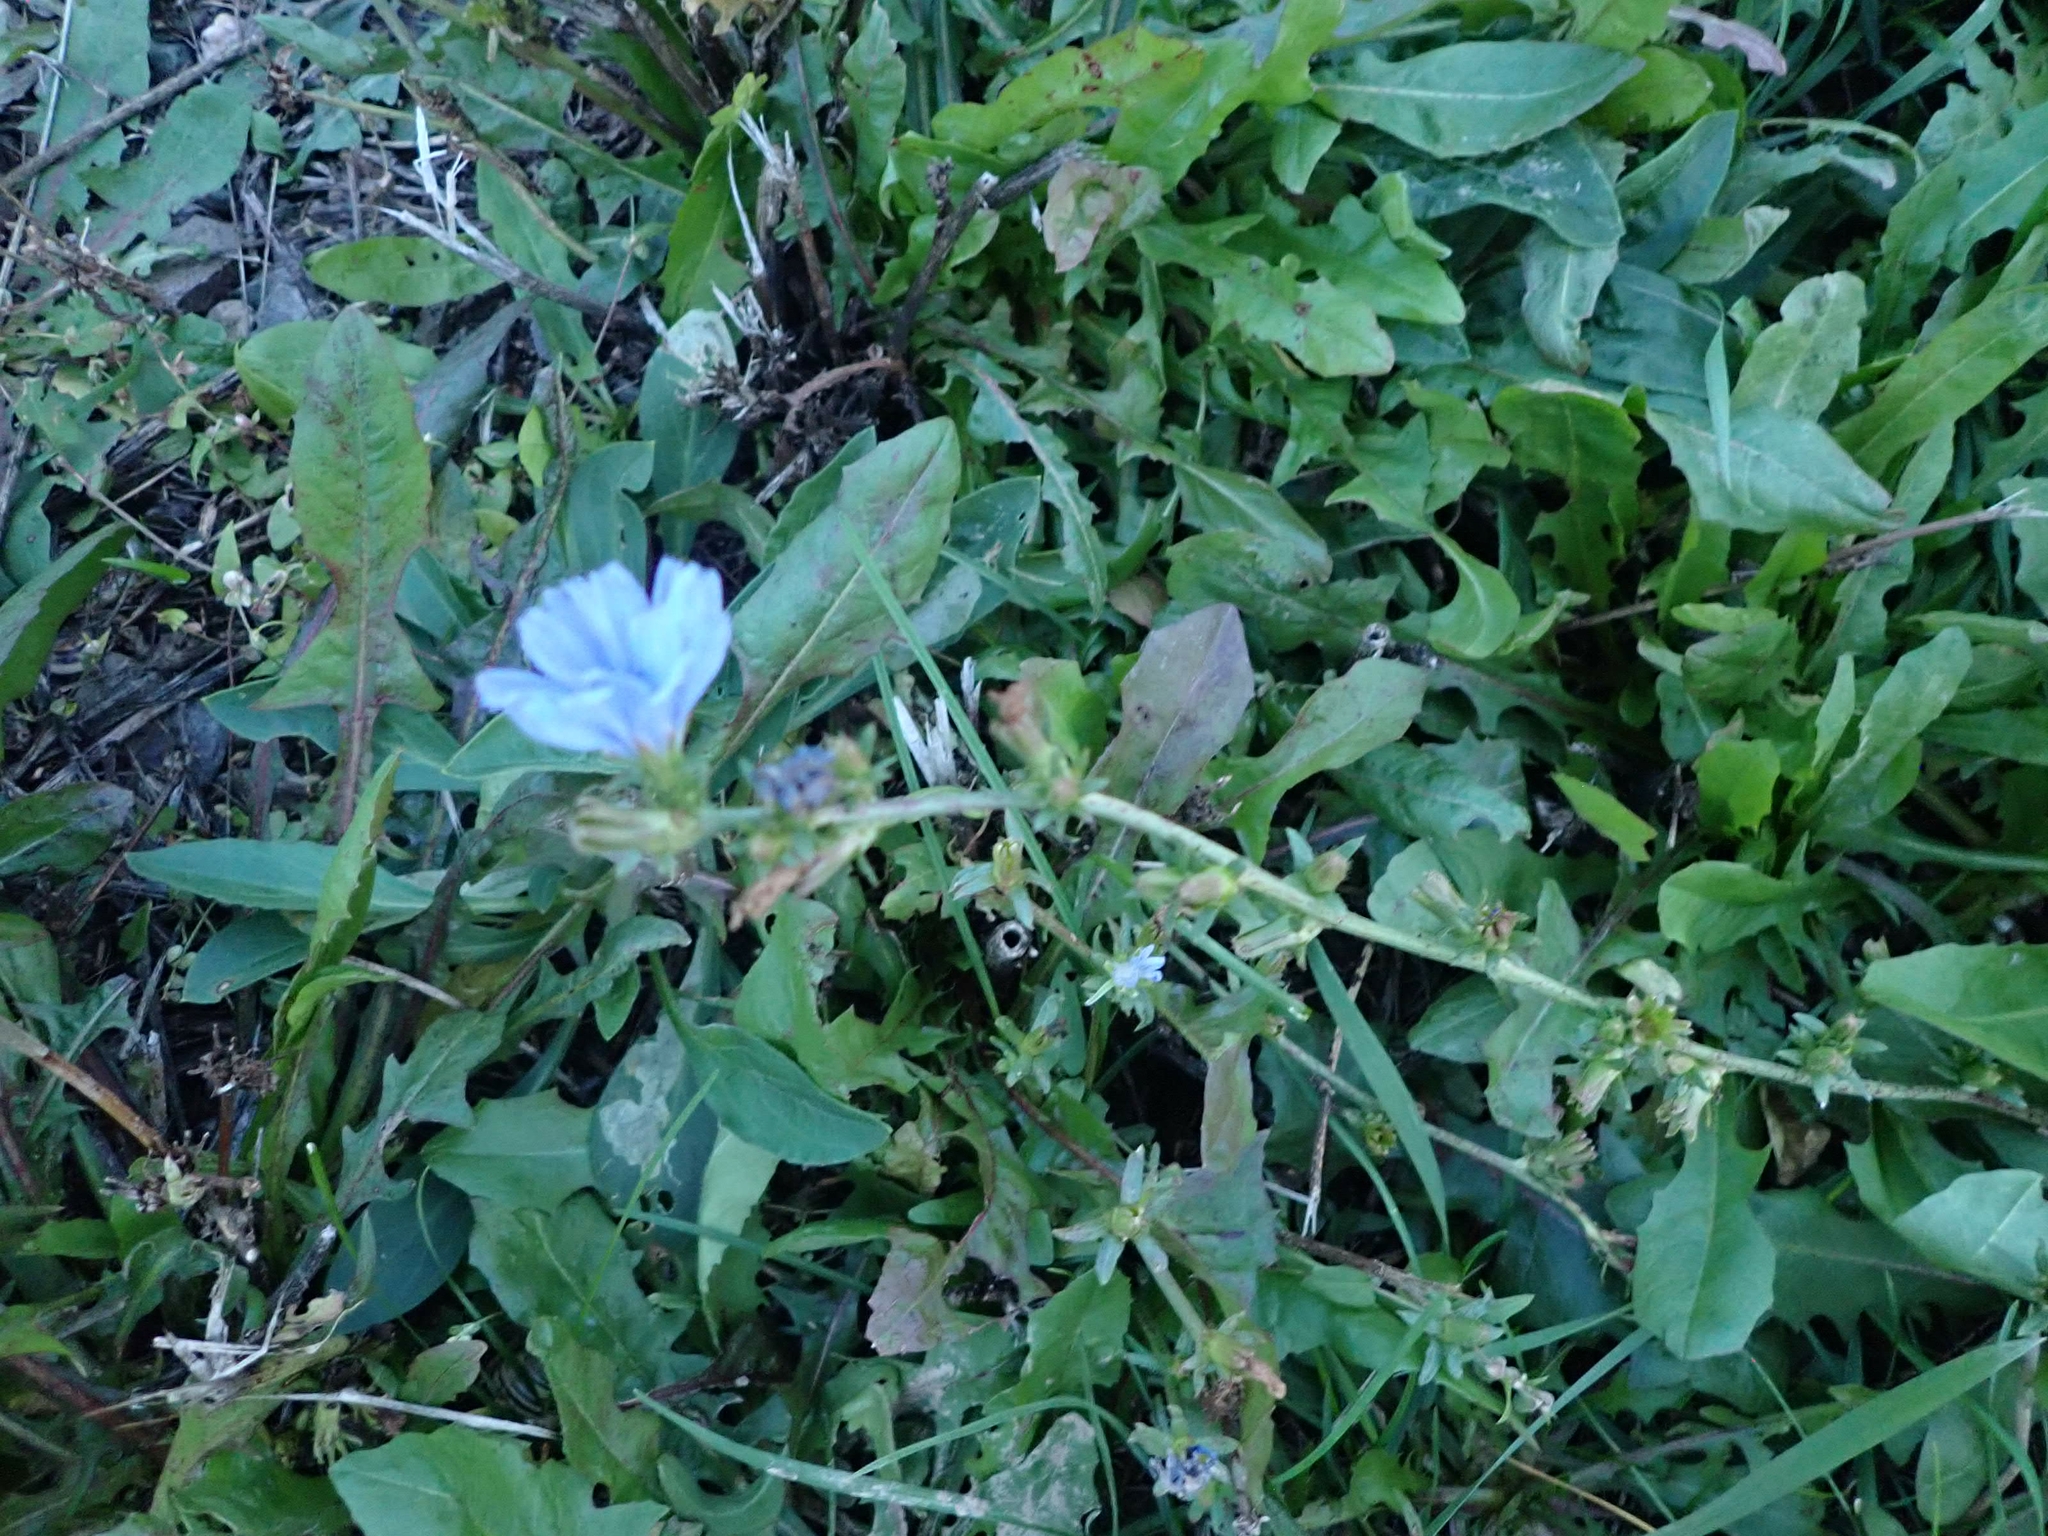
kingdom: Plantae
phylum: Tracheophyta
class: Magnoliopsida
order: Asterales
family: Asteraceae
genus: Cichorium
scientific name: Cichorium intybus
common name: Chicory
